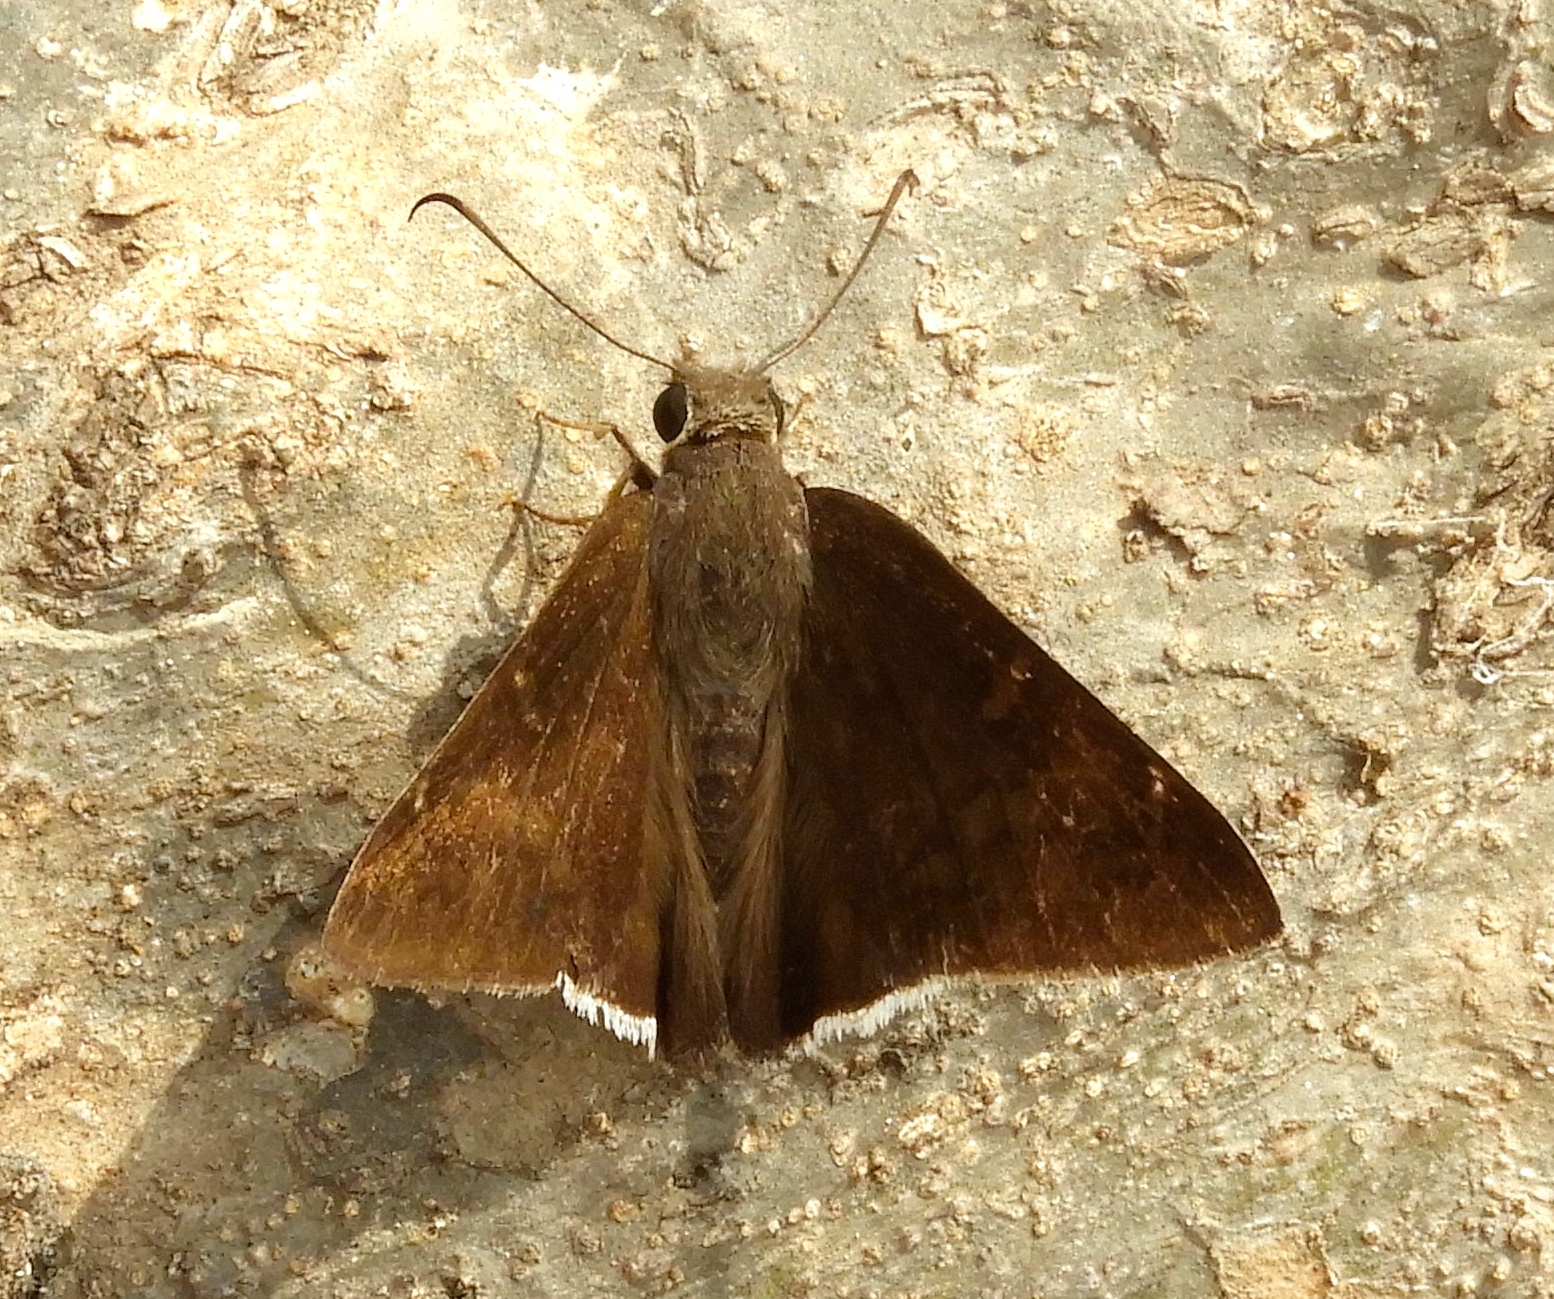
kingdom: Animalia
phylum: Arthropoda
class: Insecta
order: Lepidoptera
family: Hesperiidae
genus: Achalarus
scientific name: Achalarus Murgaria albociliatus
